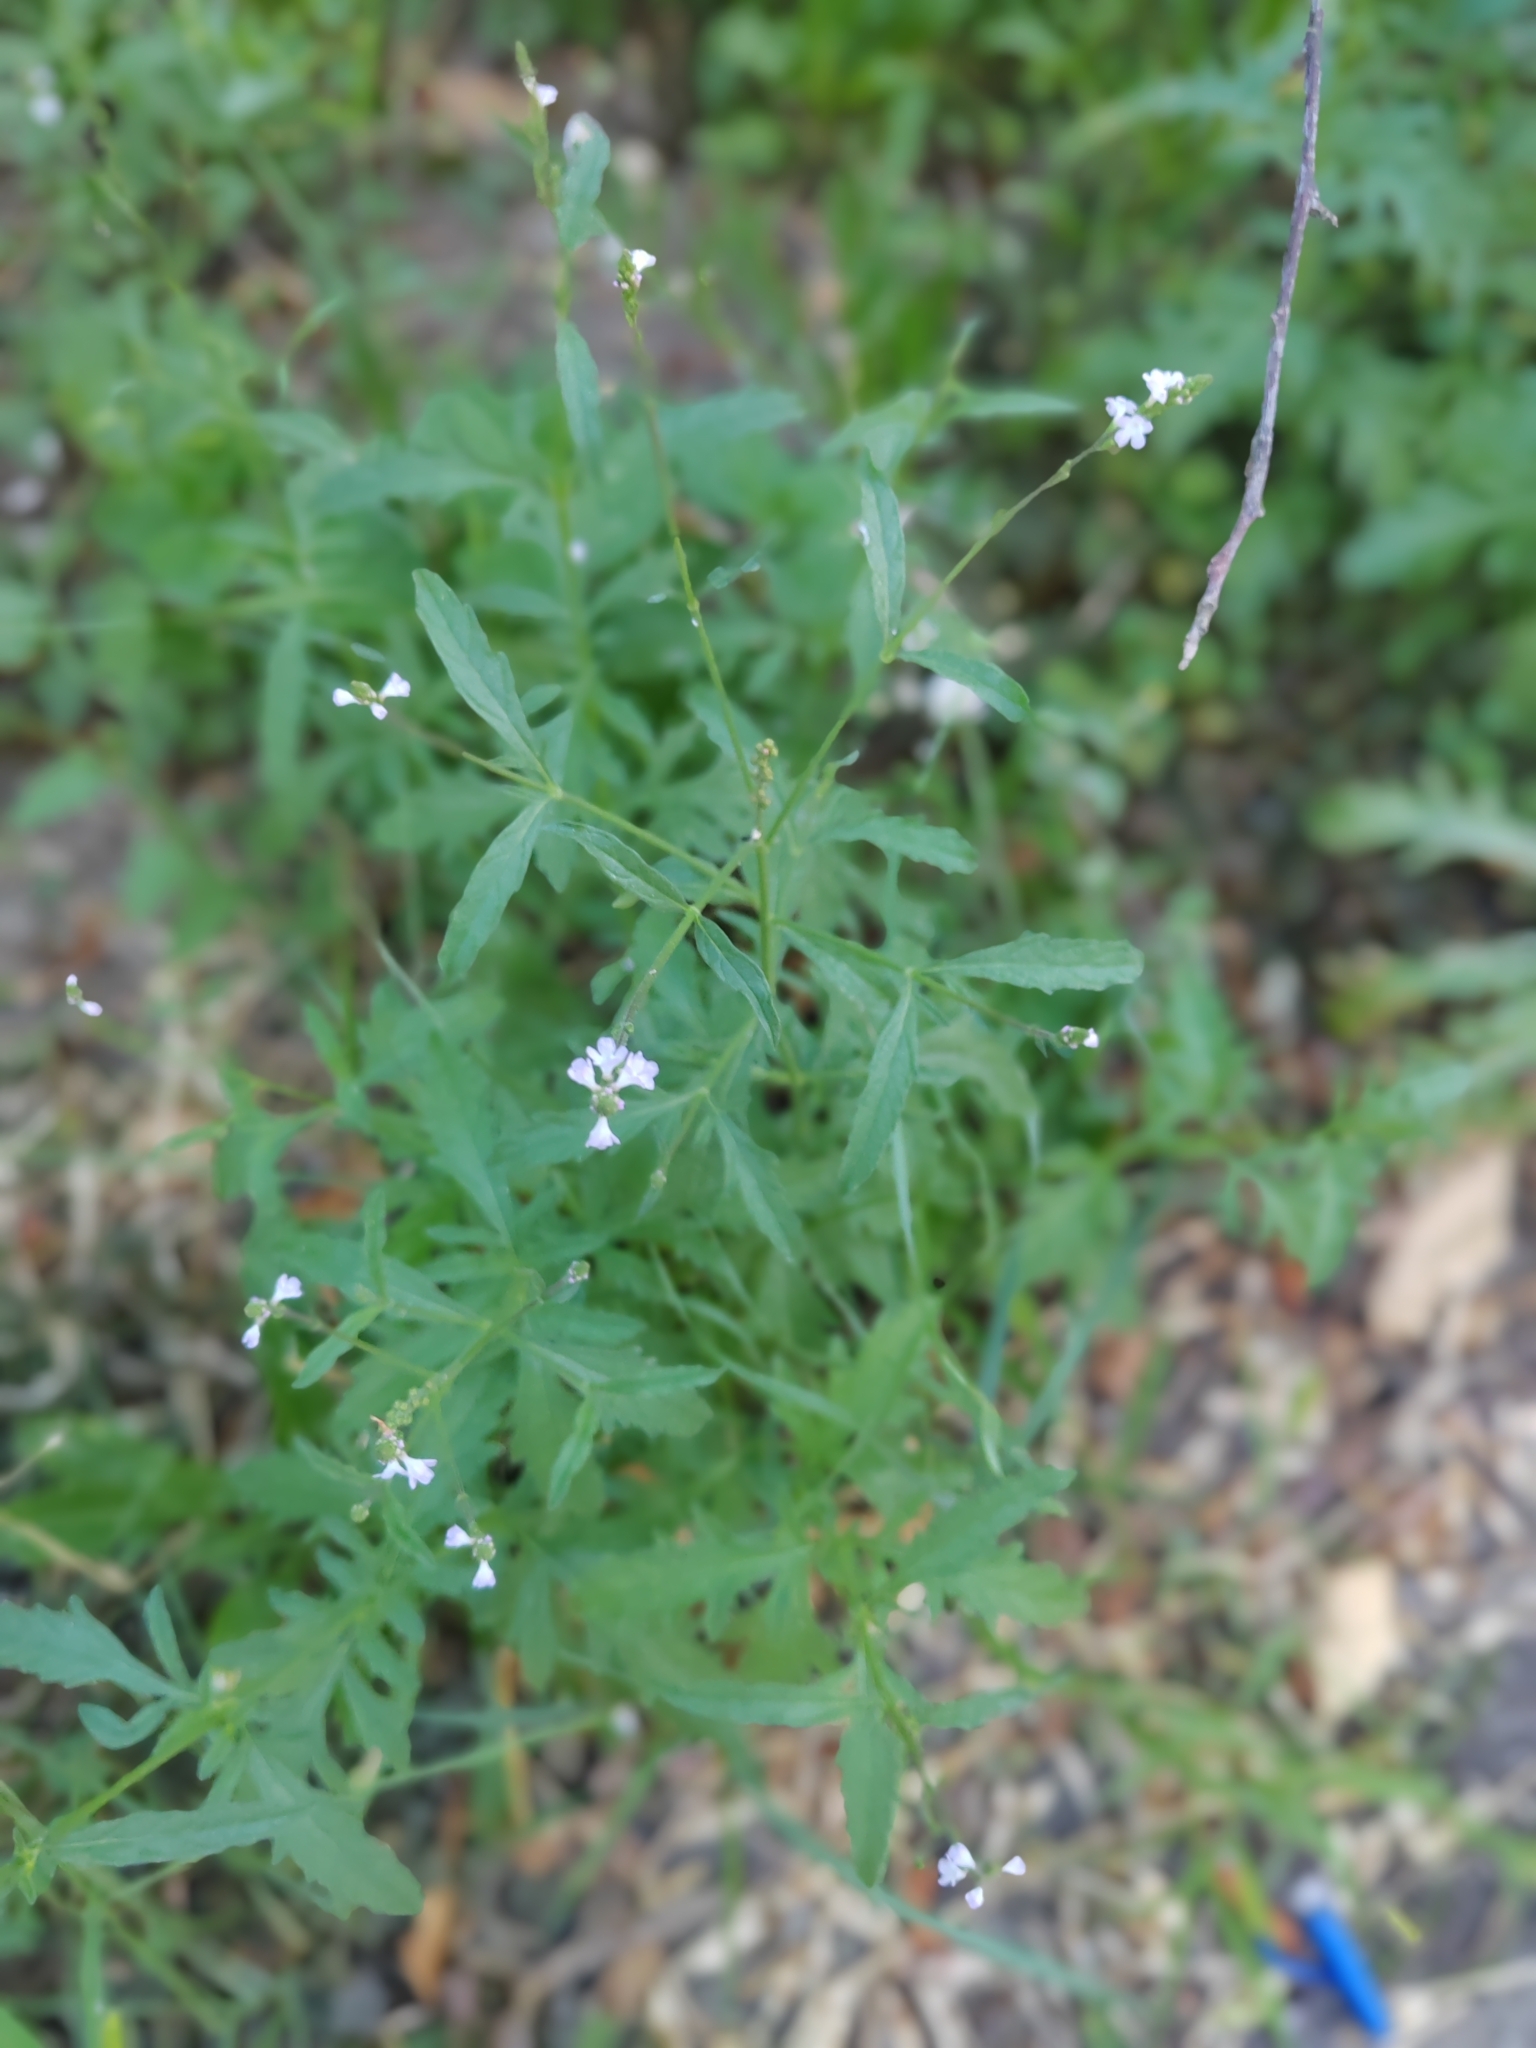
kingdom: Plantae
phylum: Tracheophyta
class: Magnoliopsida
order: Lamiales
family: Verbenaceae
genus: Verbena
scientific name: Verbena officinalis
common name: Vervain
